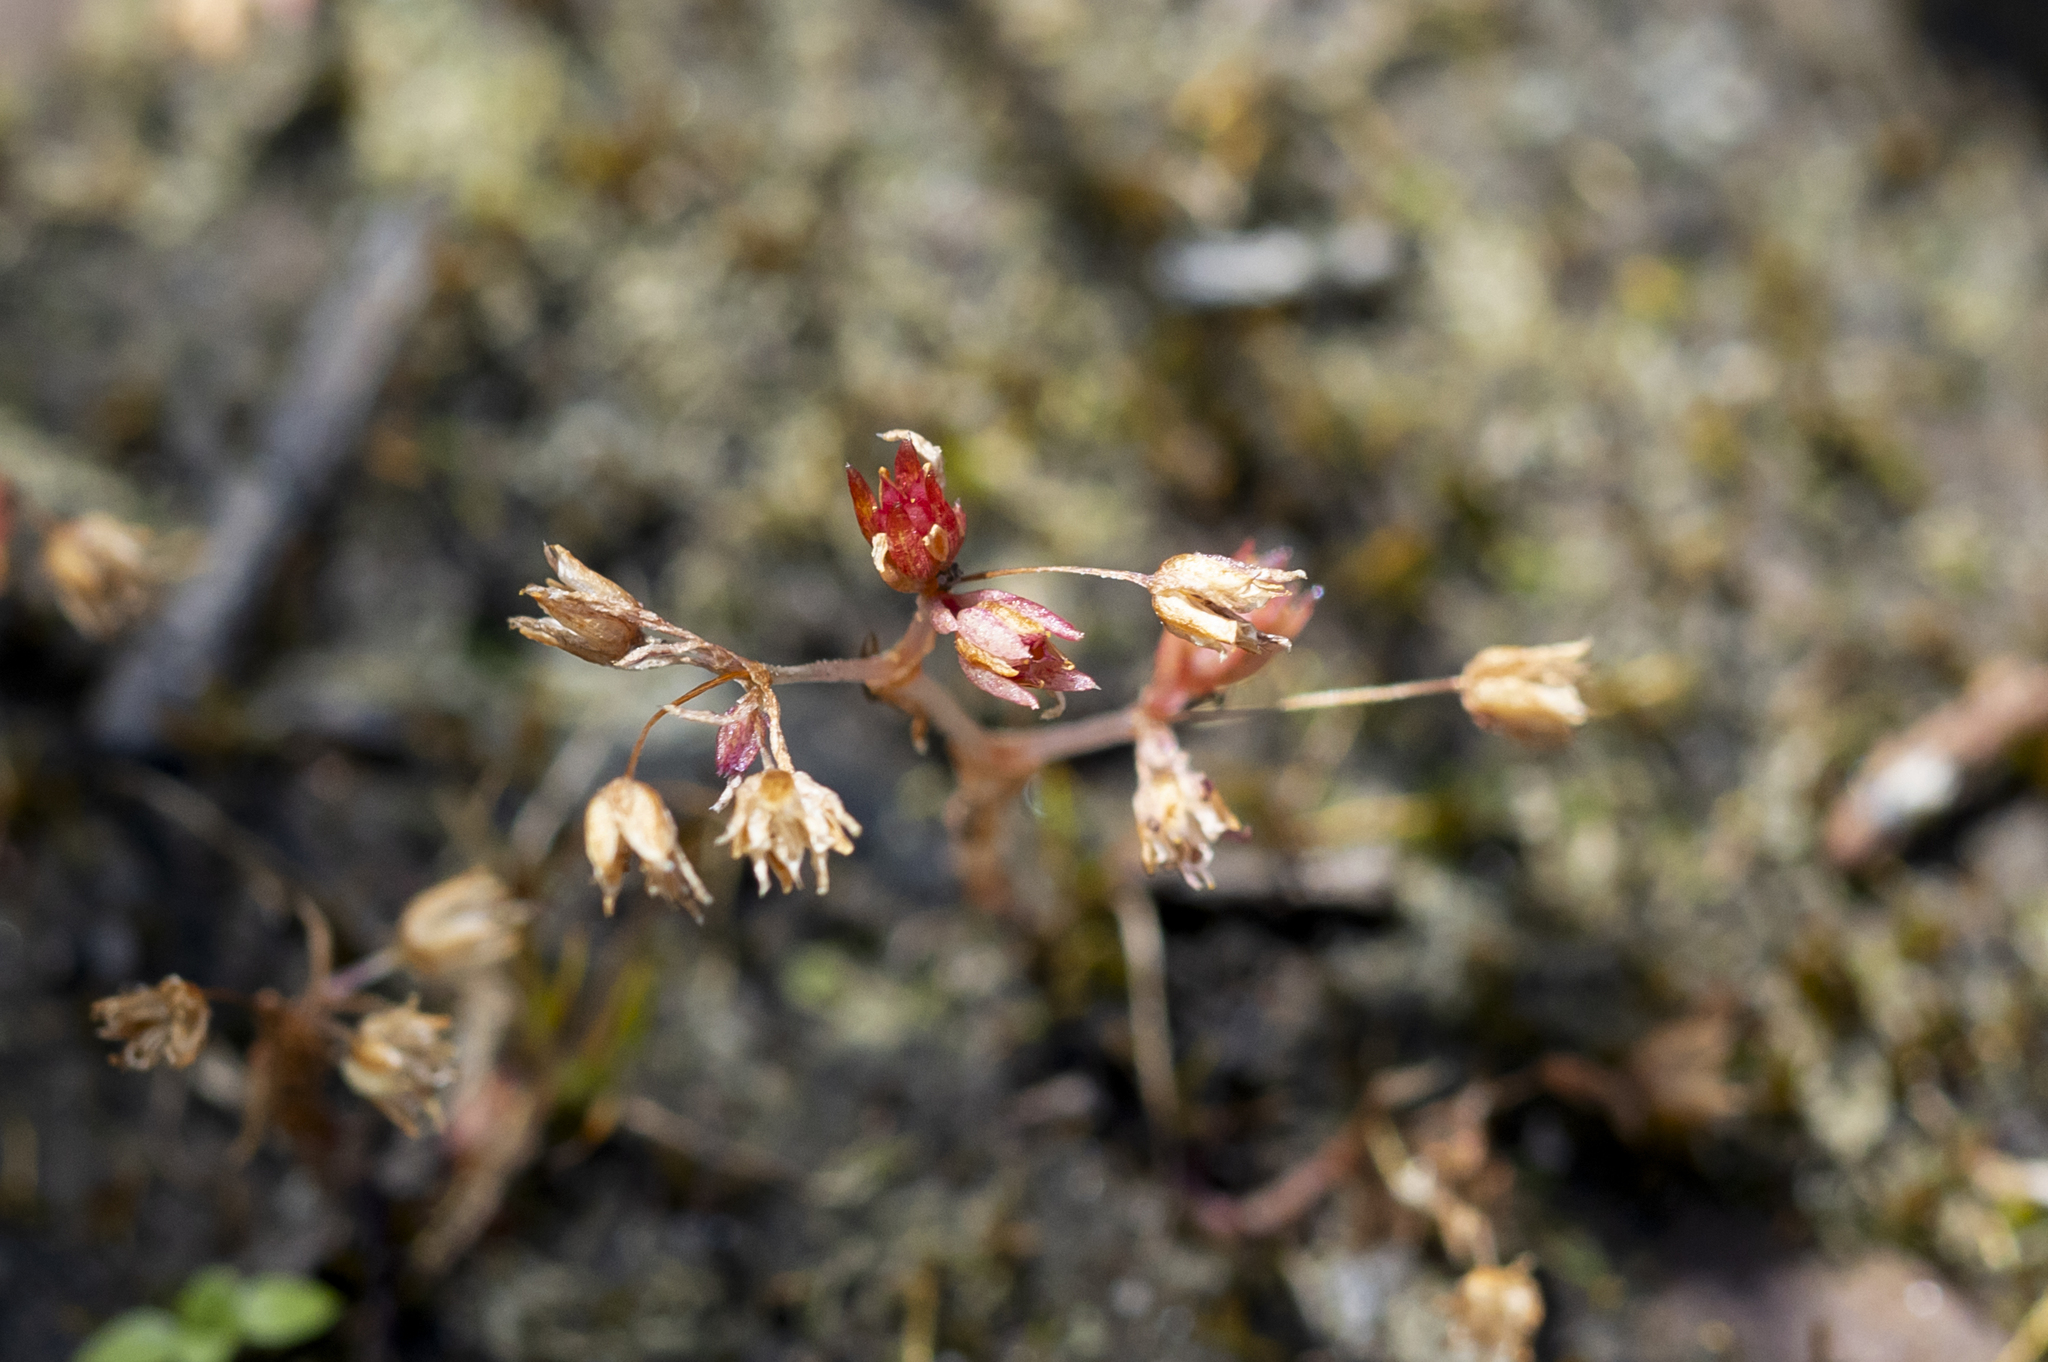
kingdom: Plantae
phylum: Tracheophyta
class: Magnoliopsida
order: Saxifragales
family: Crassulaceae
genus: Crassula
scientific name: Crassula decumbens
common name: Scilly pigmyweed
